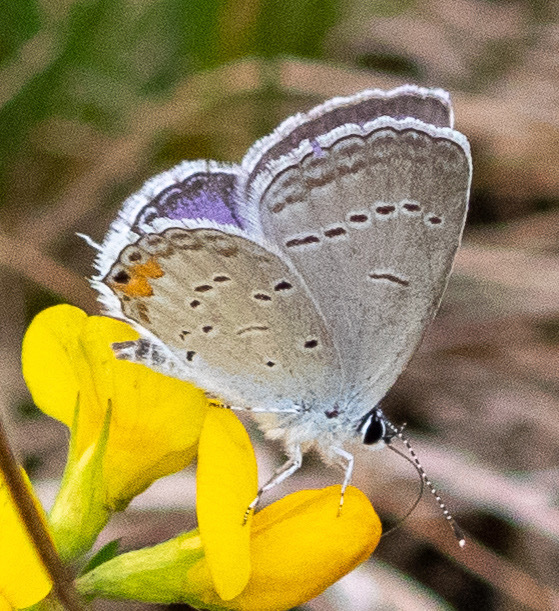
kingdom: Animalia
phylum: Arthropoda
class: Insecta
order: Lepidoptera
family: Lycaenidae
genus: Elkalyce
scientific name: Elkalyce comyntas
